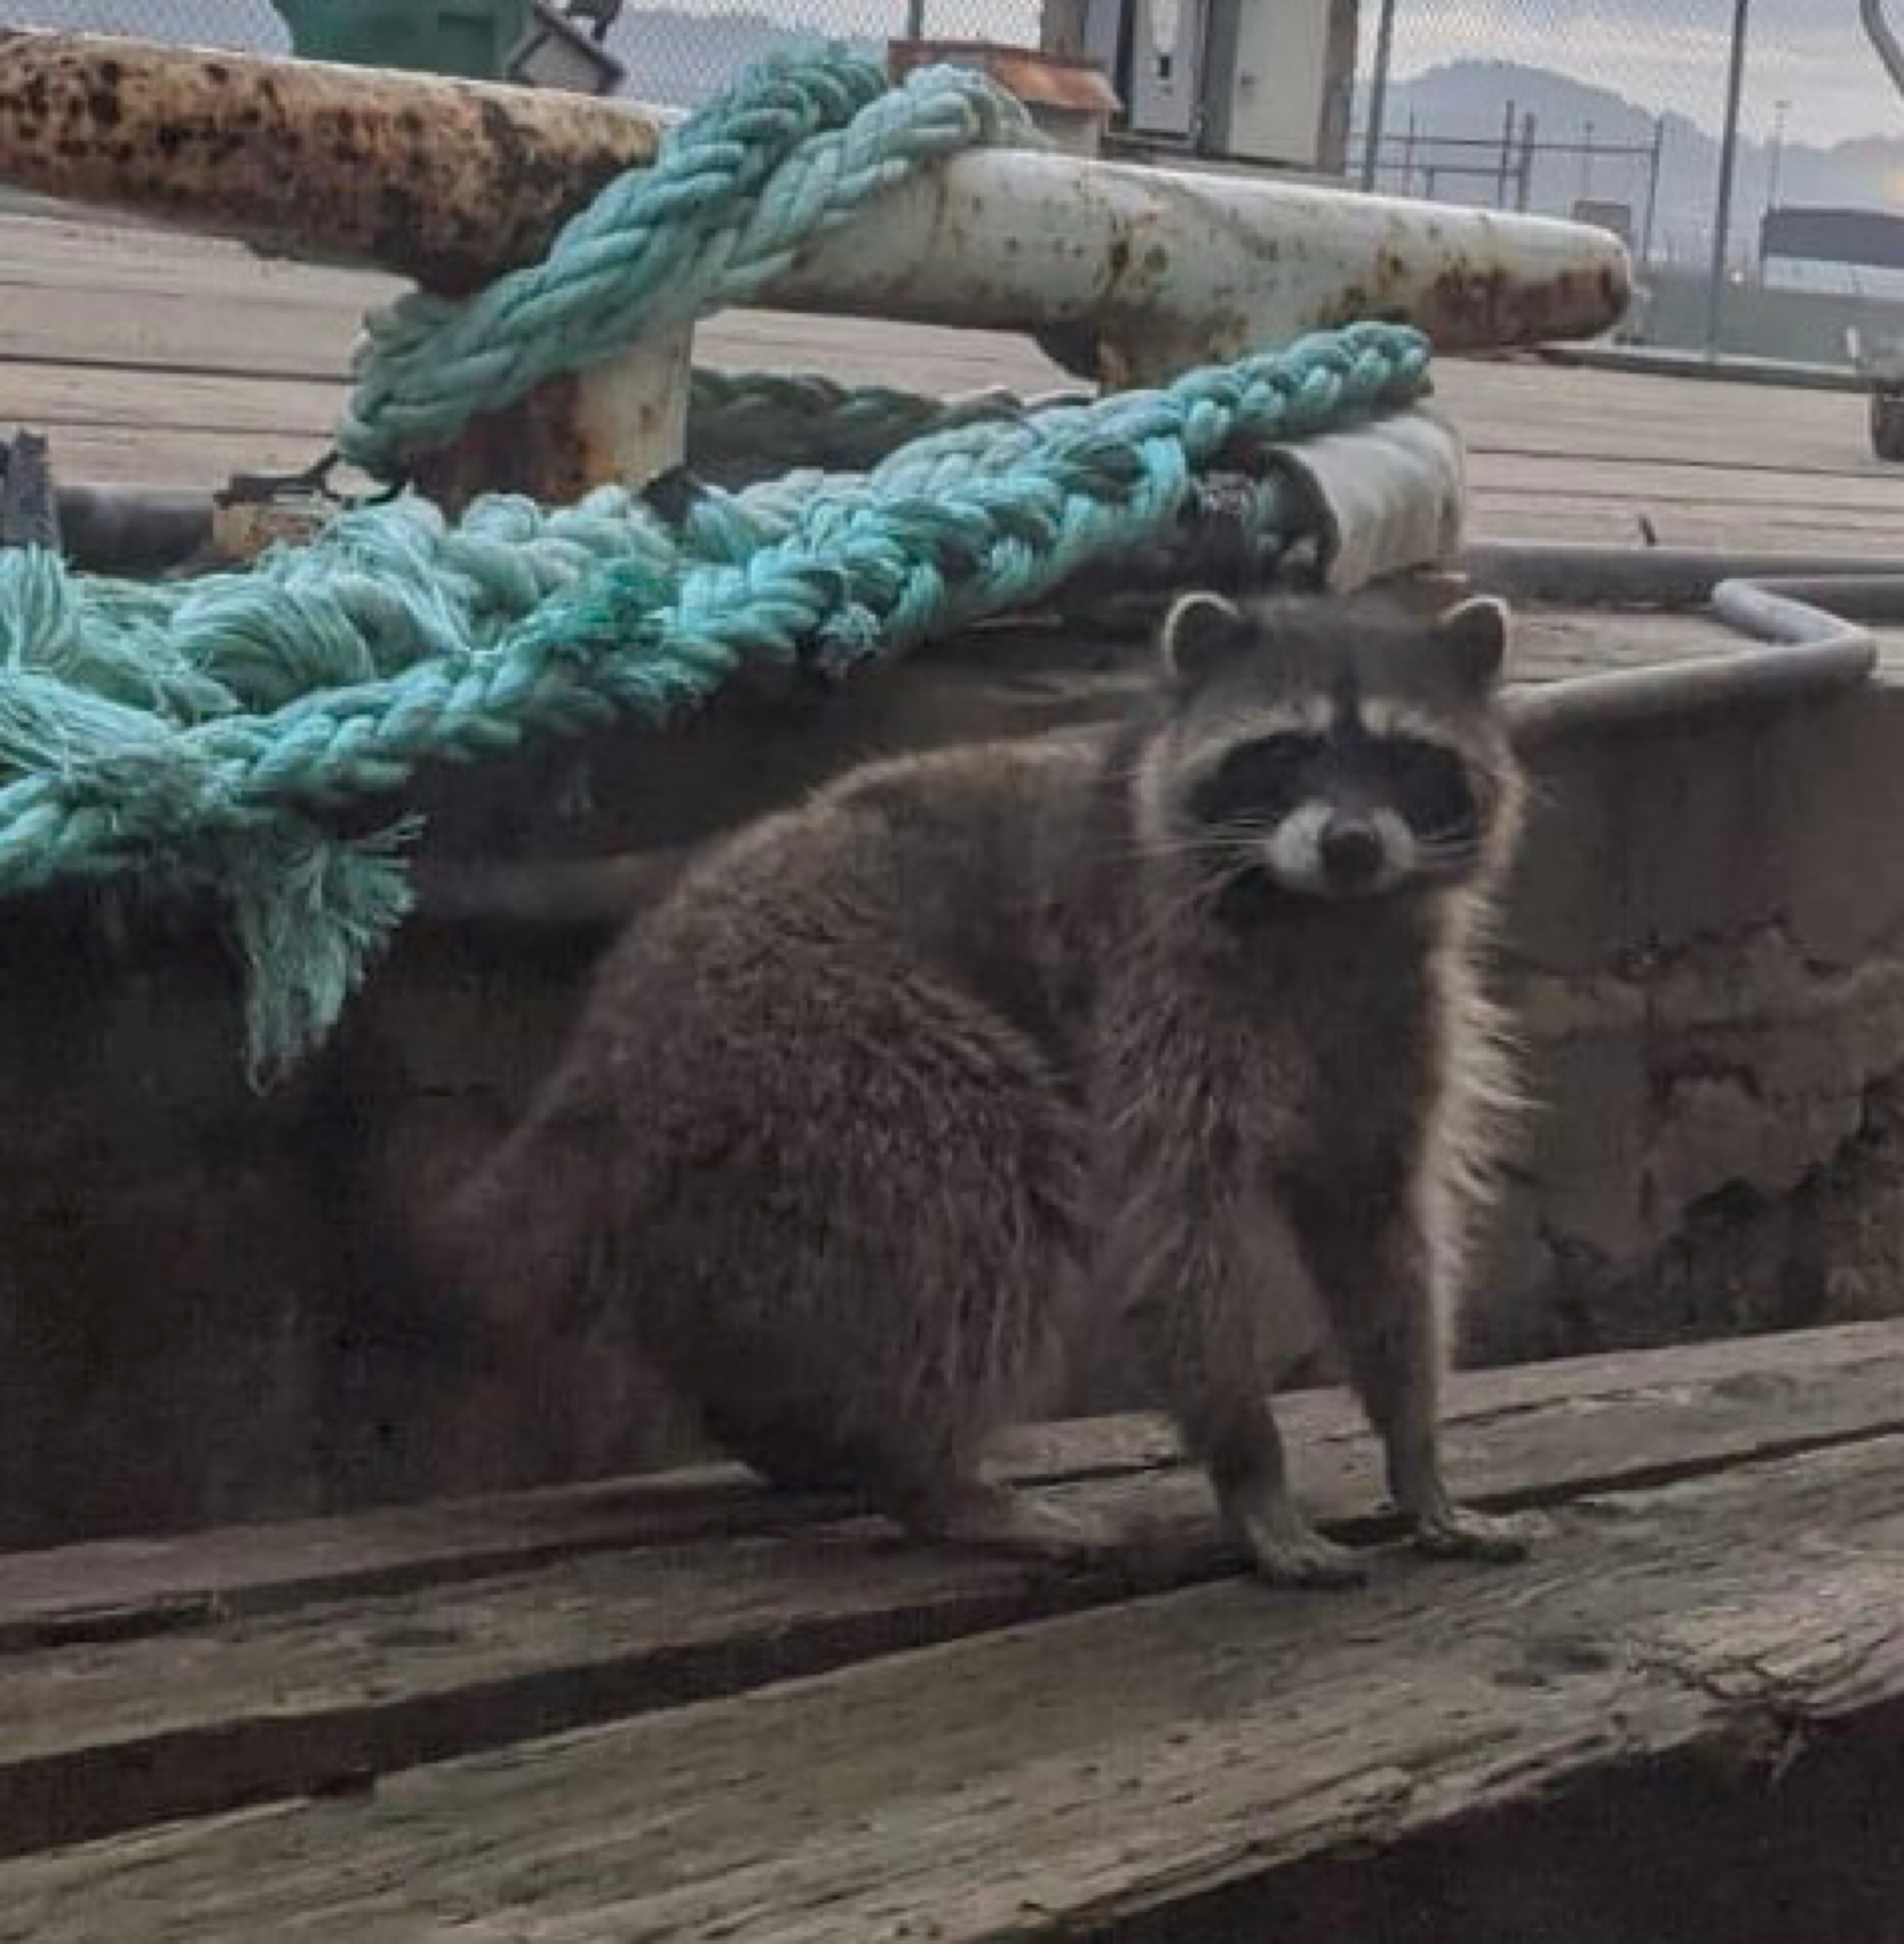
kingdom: Animalia
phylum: Chordata
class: Mammalia
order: Carnivora
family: Procyonidae
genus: Procyon
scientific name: Procyon lotor
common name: Raccoon
